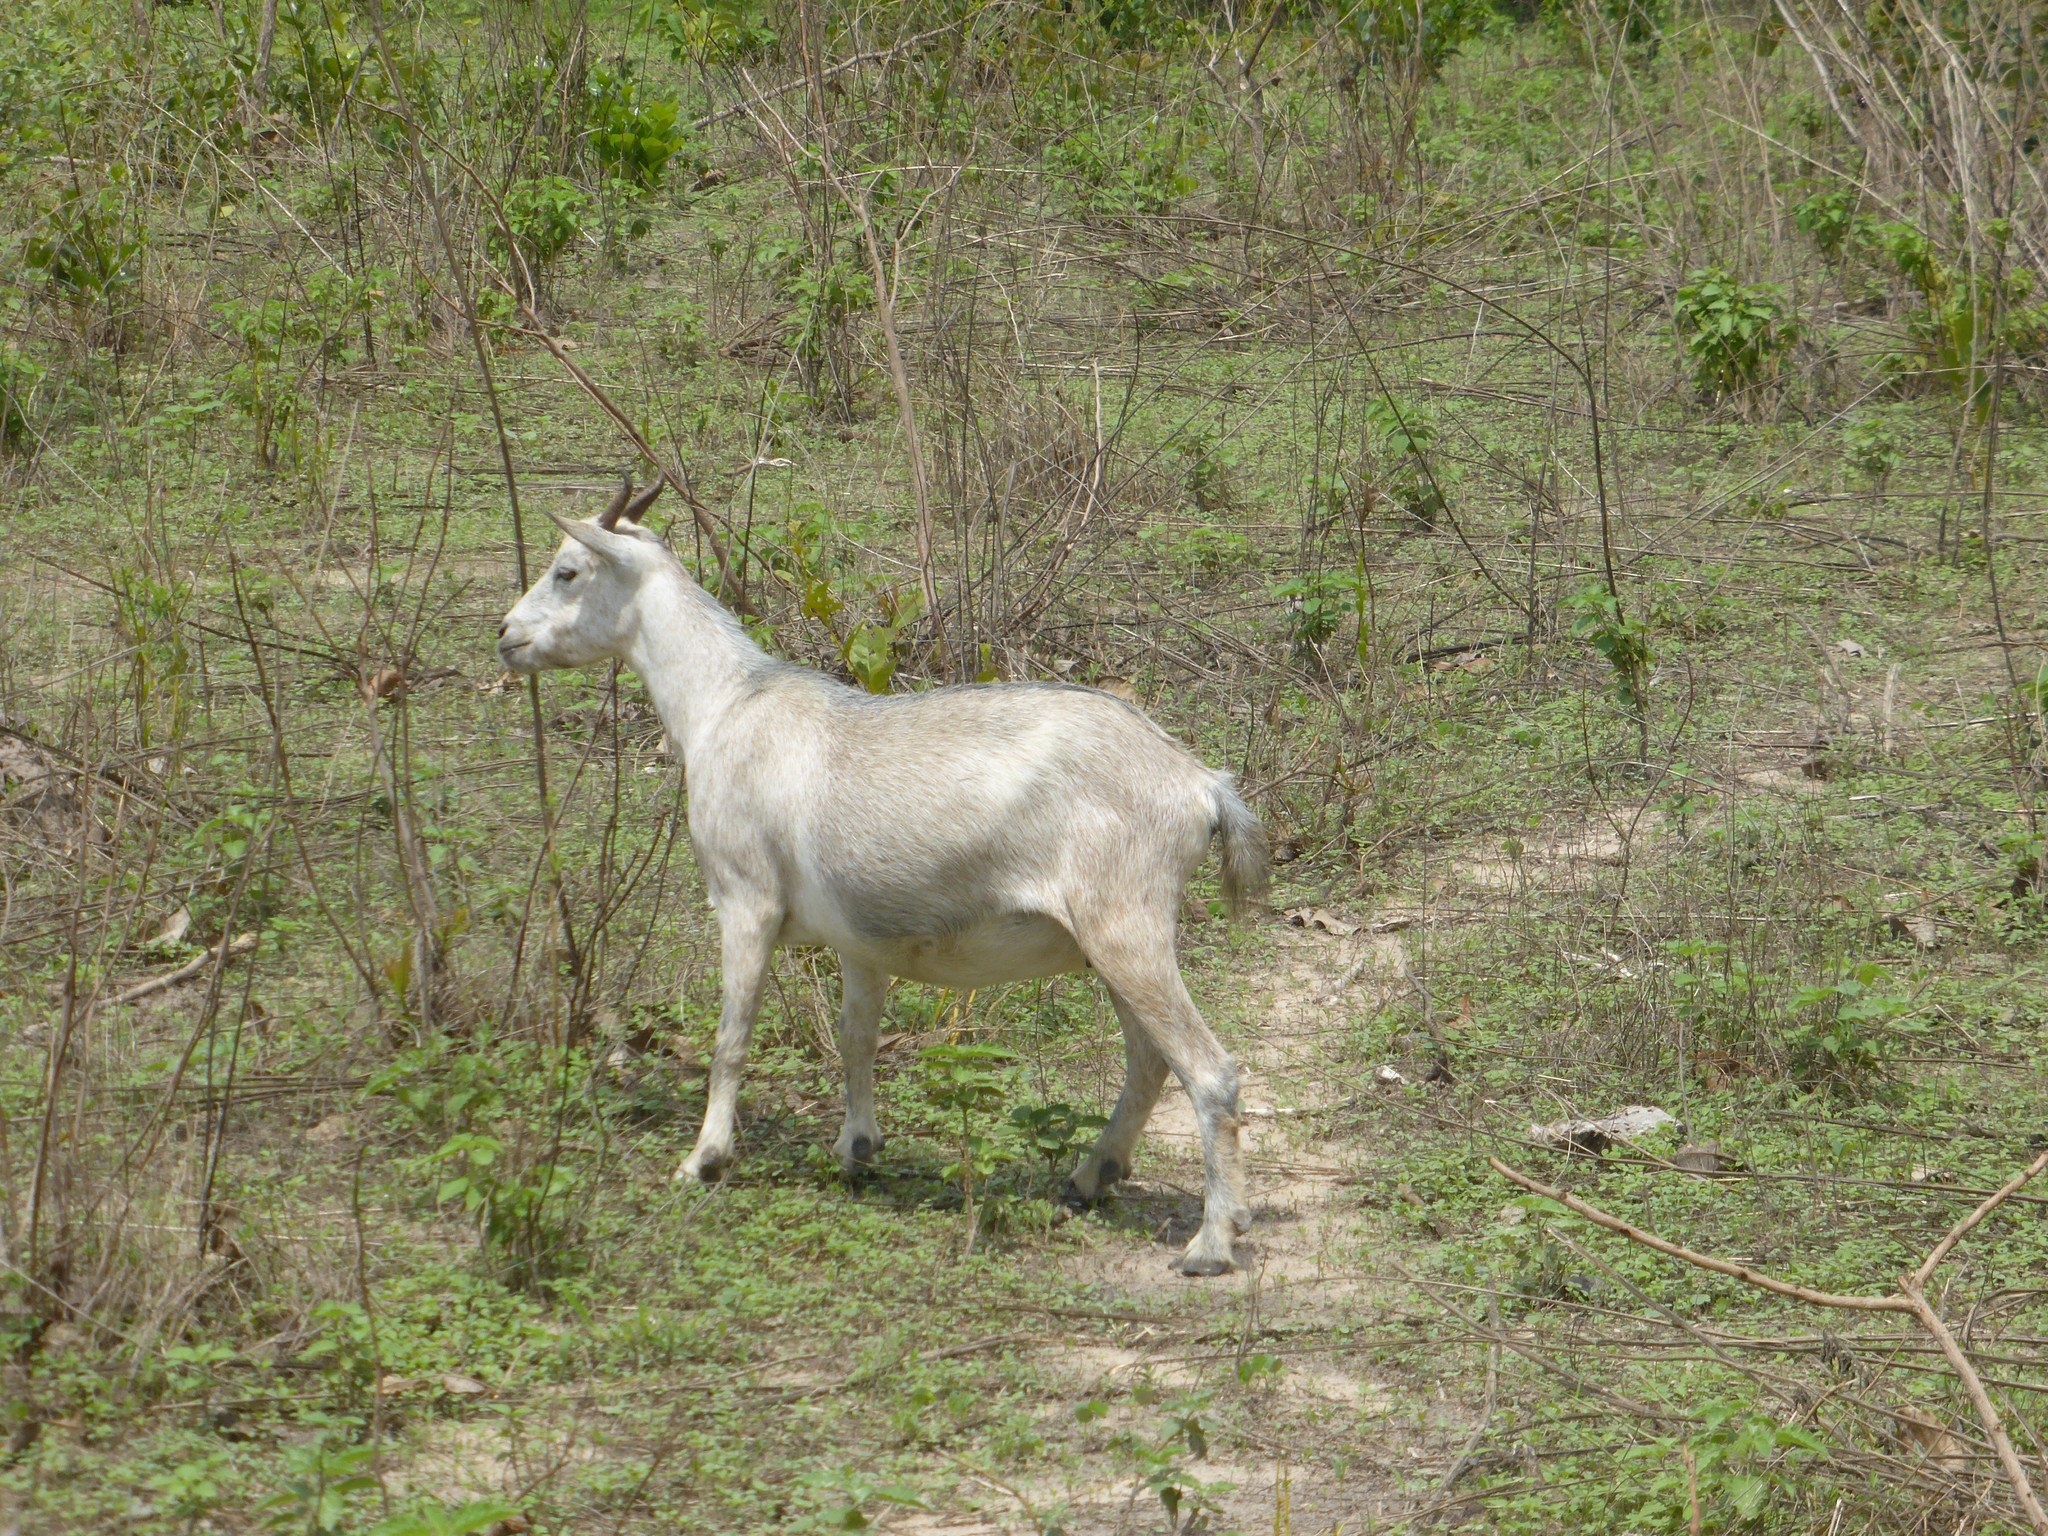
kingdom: Animalia
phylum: Chordata
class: Mammalia
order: Artiodactyla
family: Bovidae
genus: Capra
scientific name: Capra hircus
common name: Domestic goat
